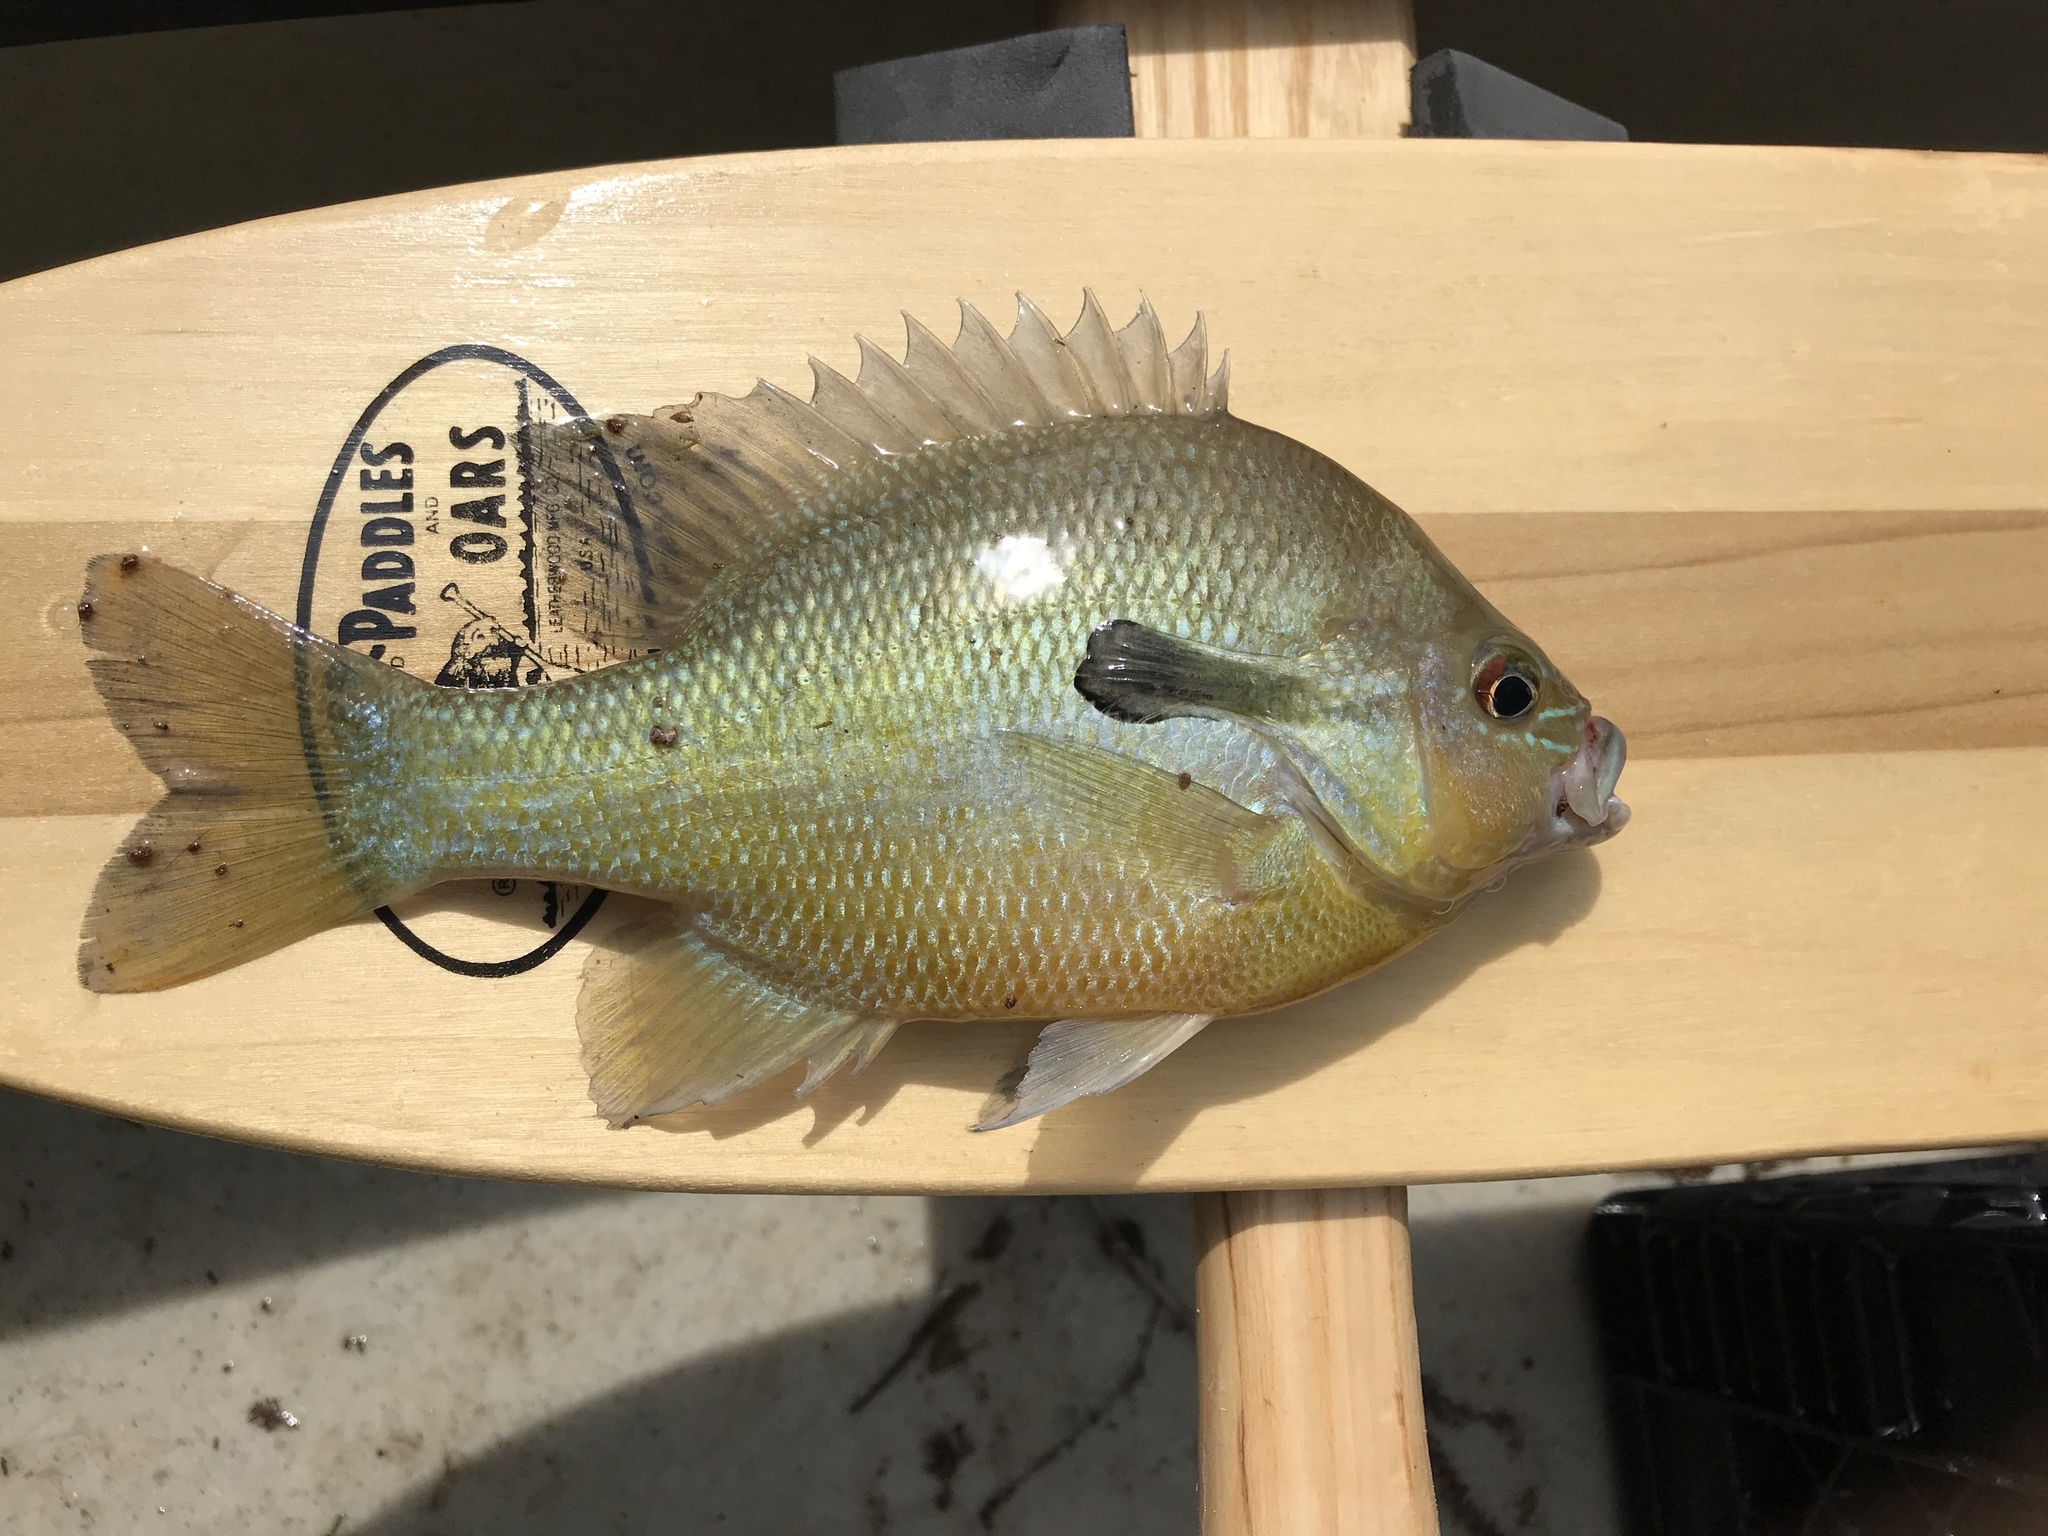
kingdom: Animalia
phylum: Chordata
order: Perciformes
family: Centrarchidae
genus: Lepomis
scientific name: Lepomis auritus
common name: Redbreast sunfish
